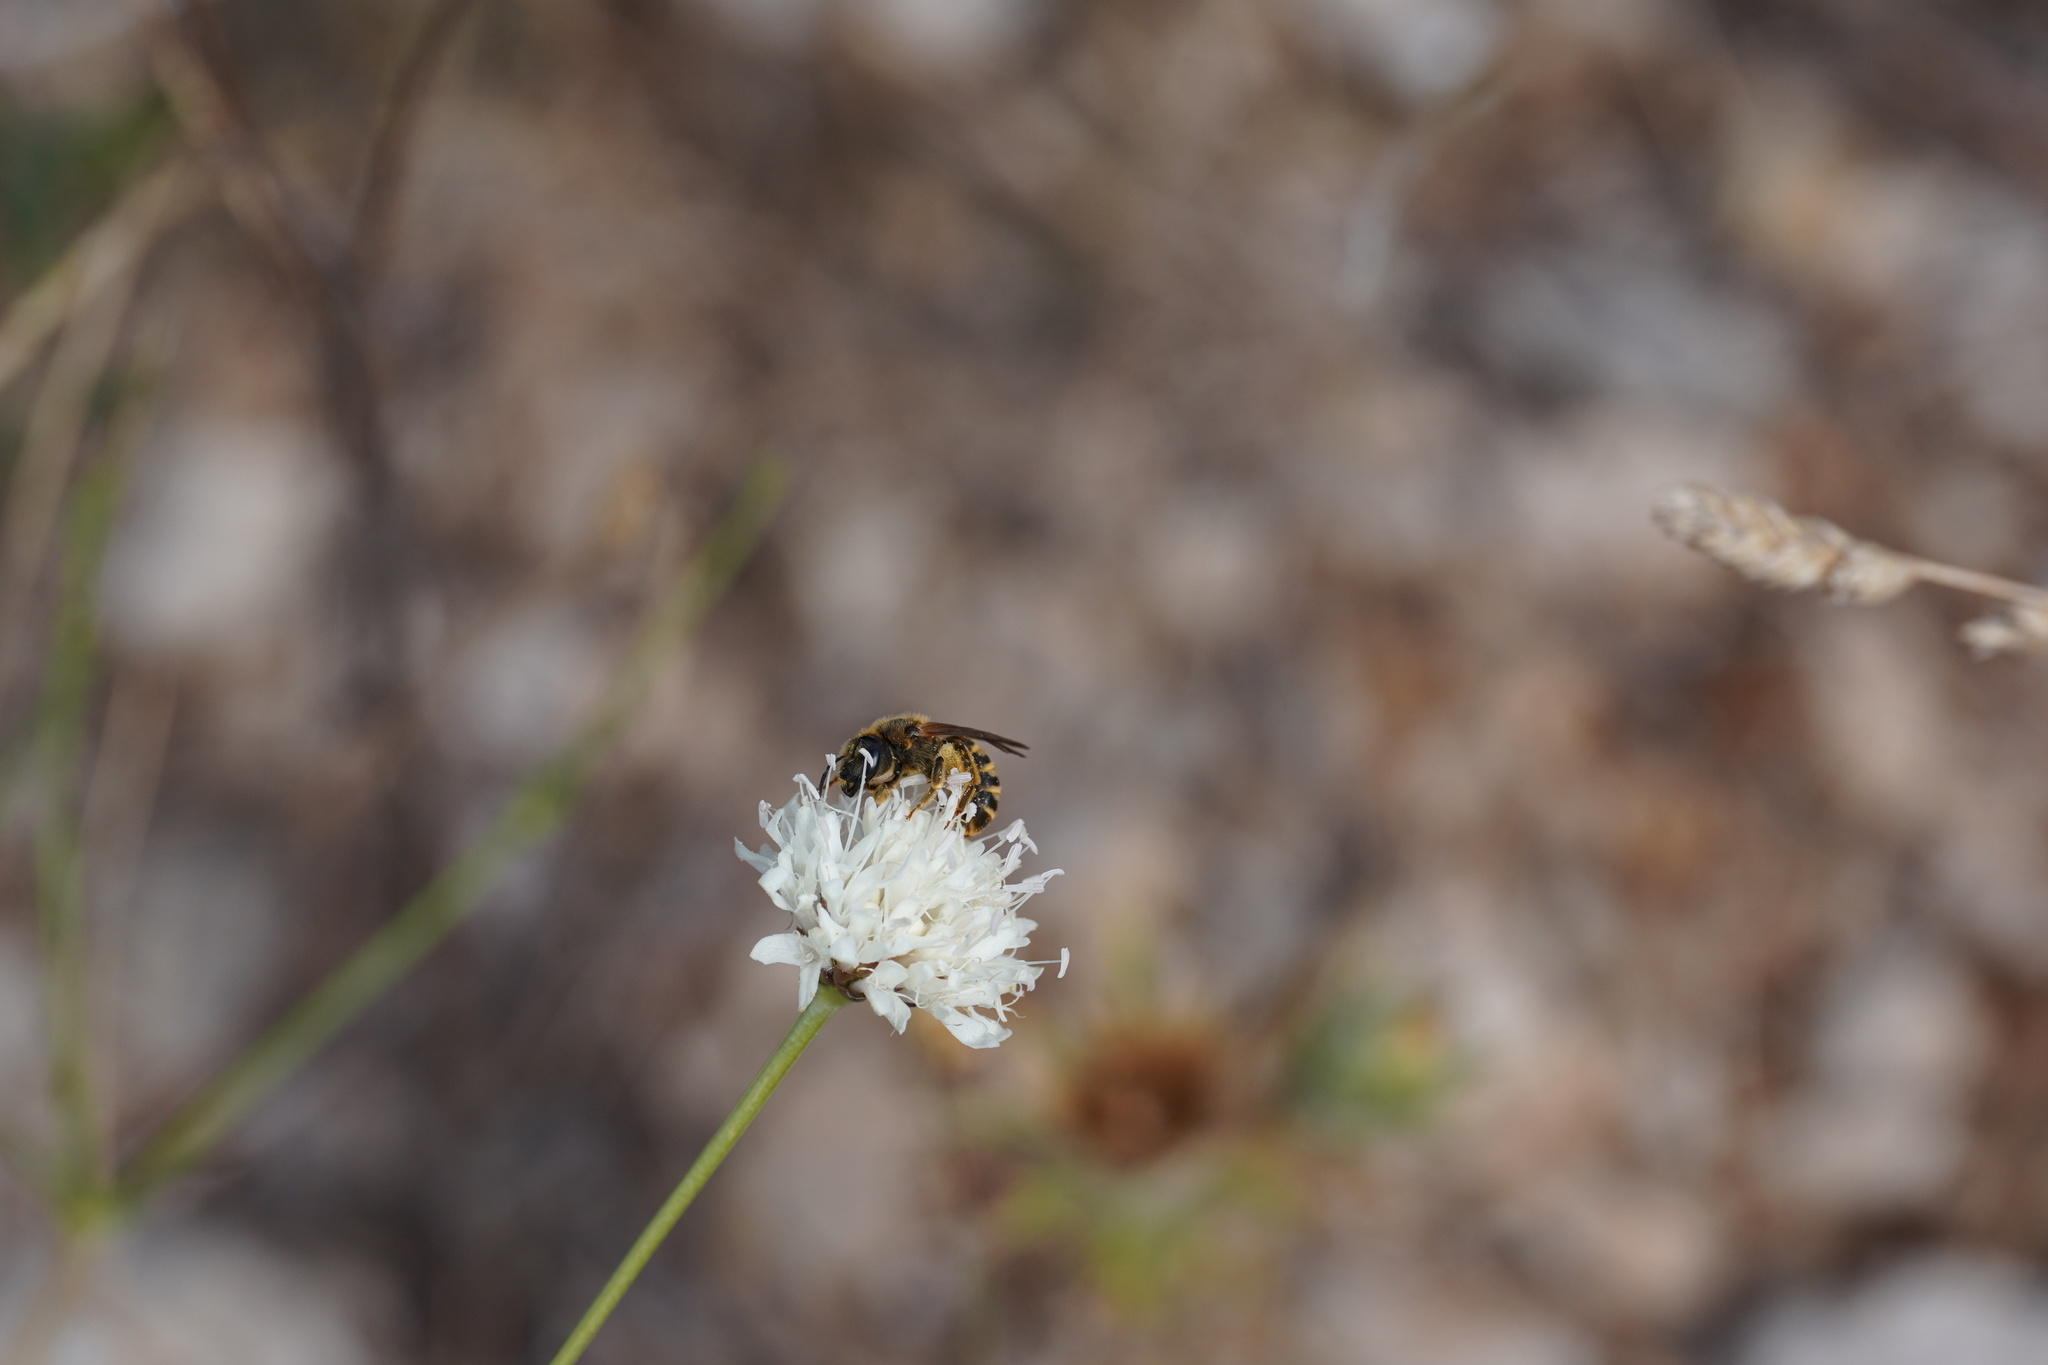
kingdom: Animalia
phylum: Arthropoda
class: Insecta
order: Hymenoptera
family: Halictidae
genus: Halictus
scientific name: Halictus scabiosae
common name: Great banded furrow bee
